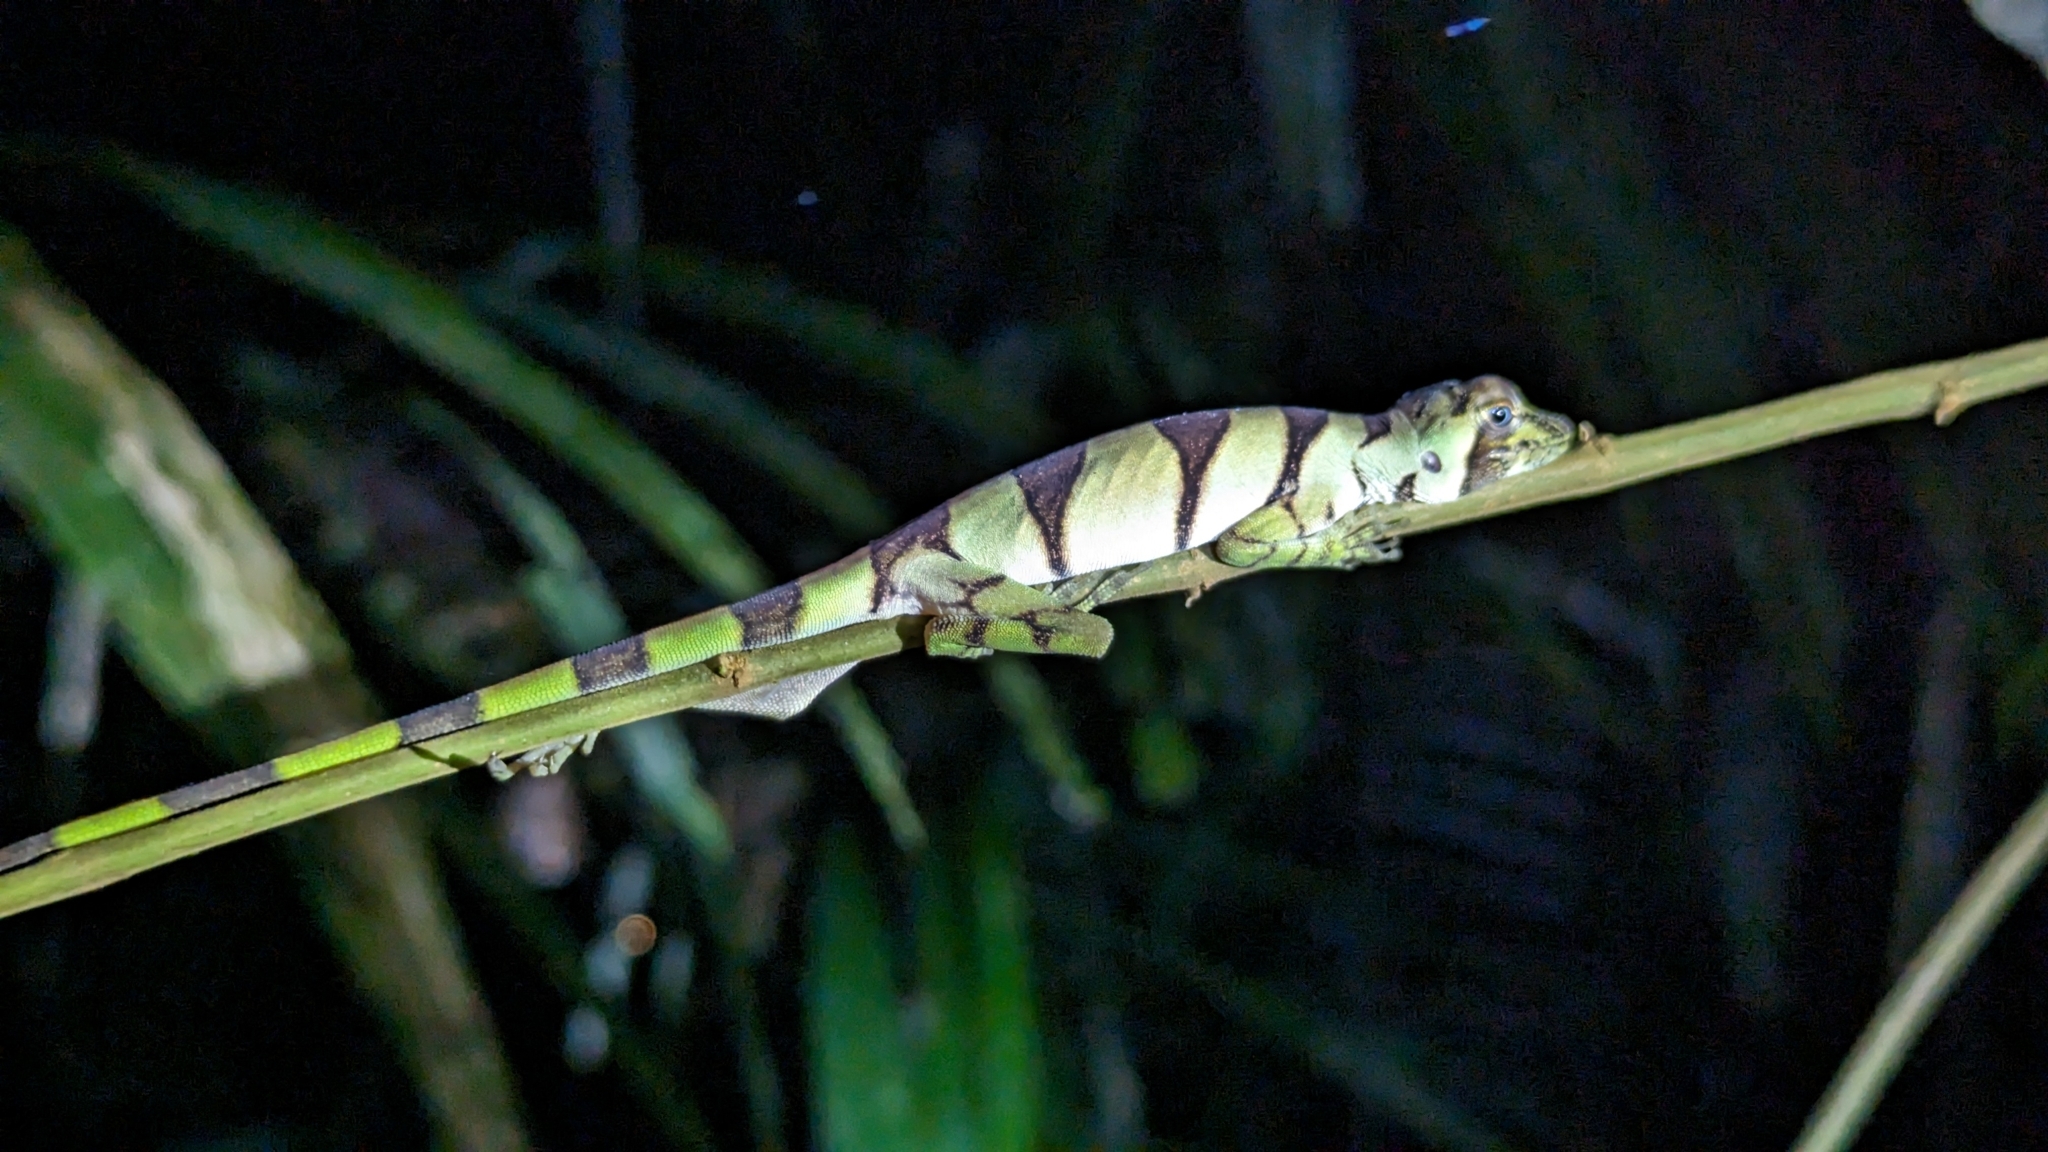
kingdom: Animalia
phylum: Chordata
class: Squamata
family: Dactyloidae
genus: Anolis
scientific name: Anolis transversalis
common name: Banded tree anole
